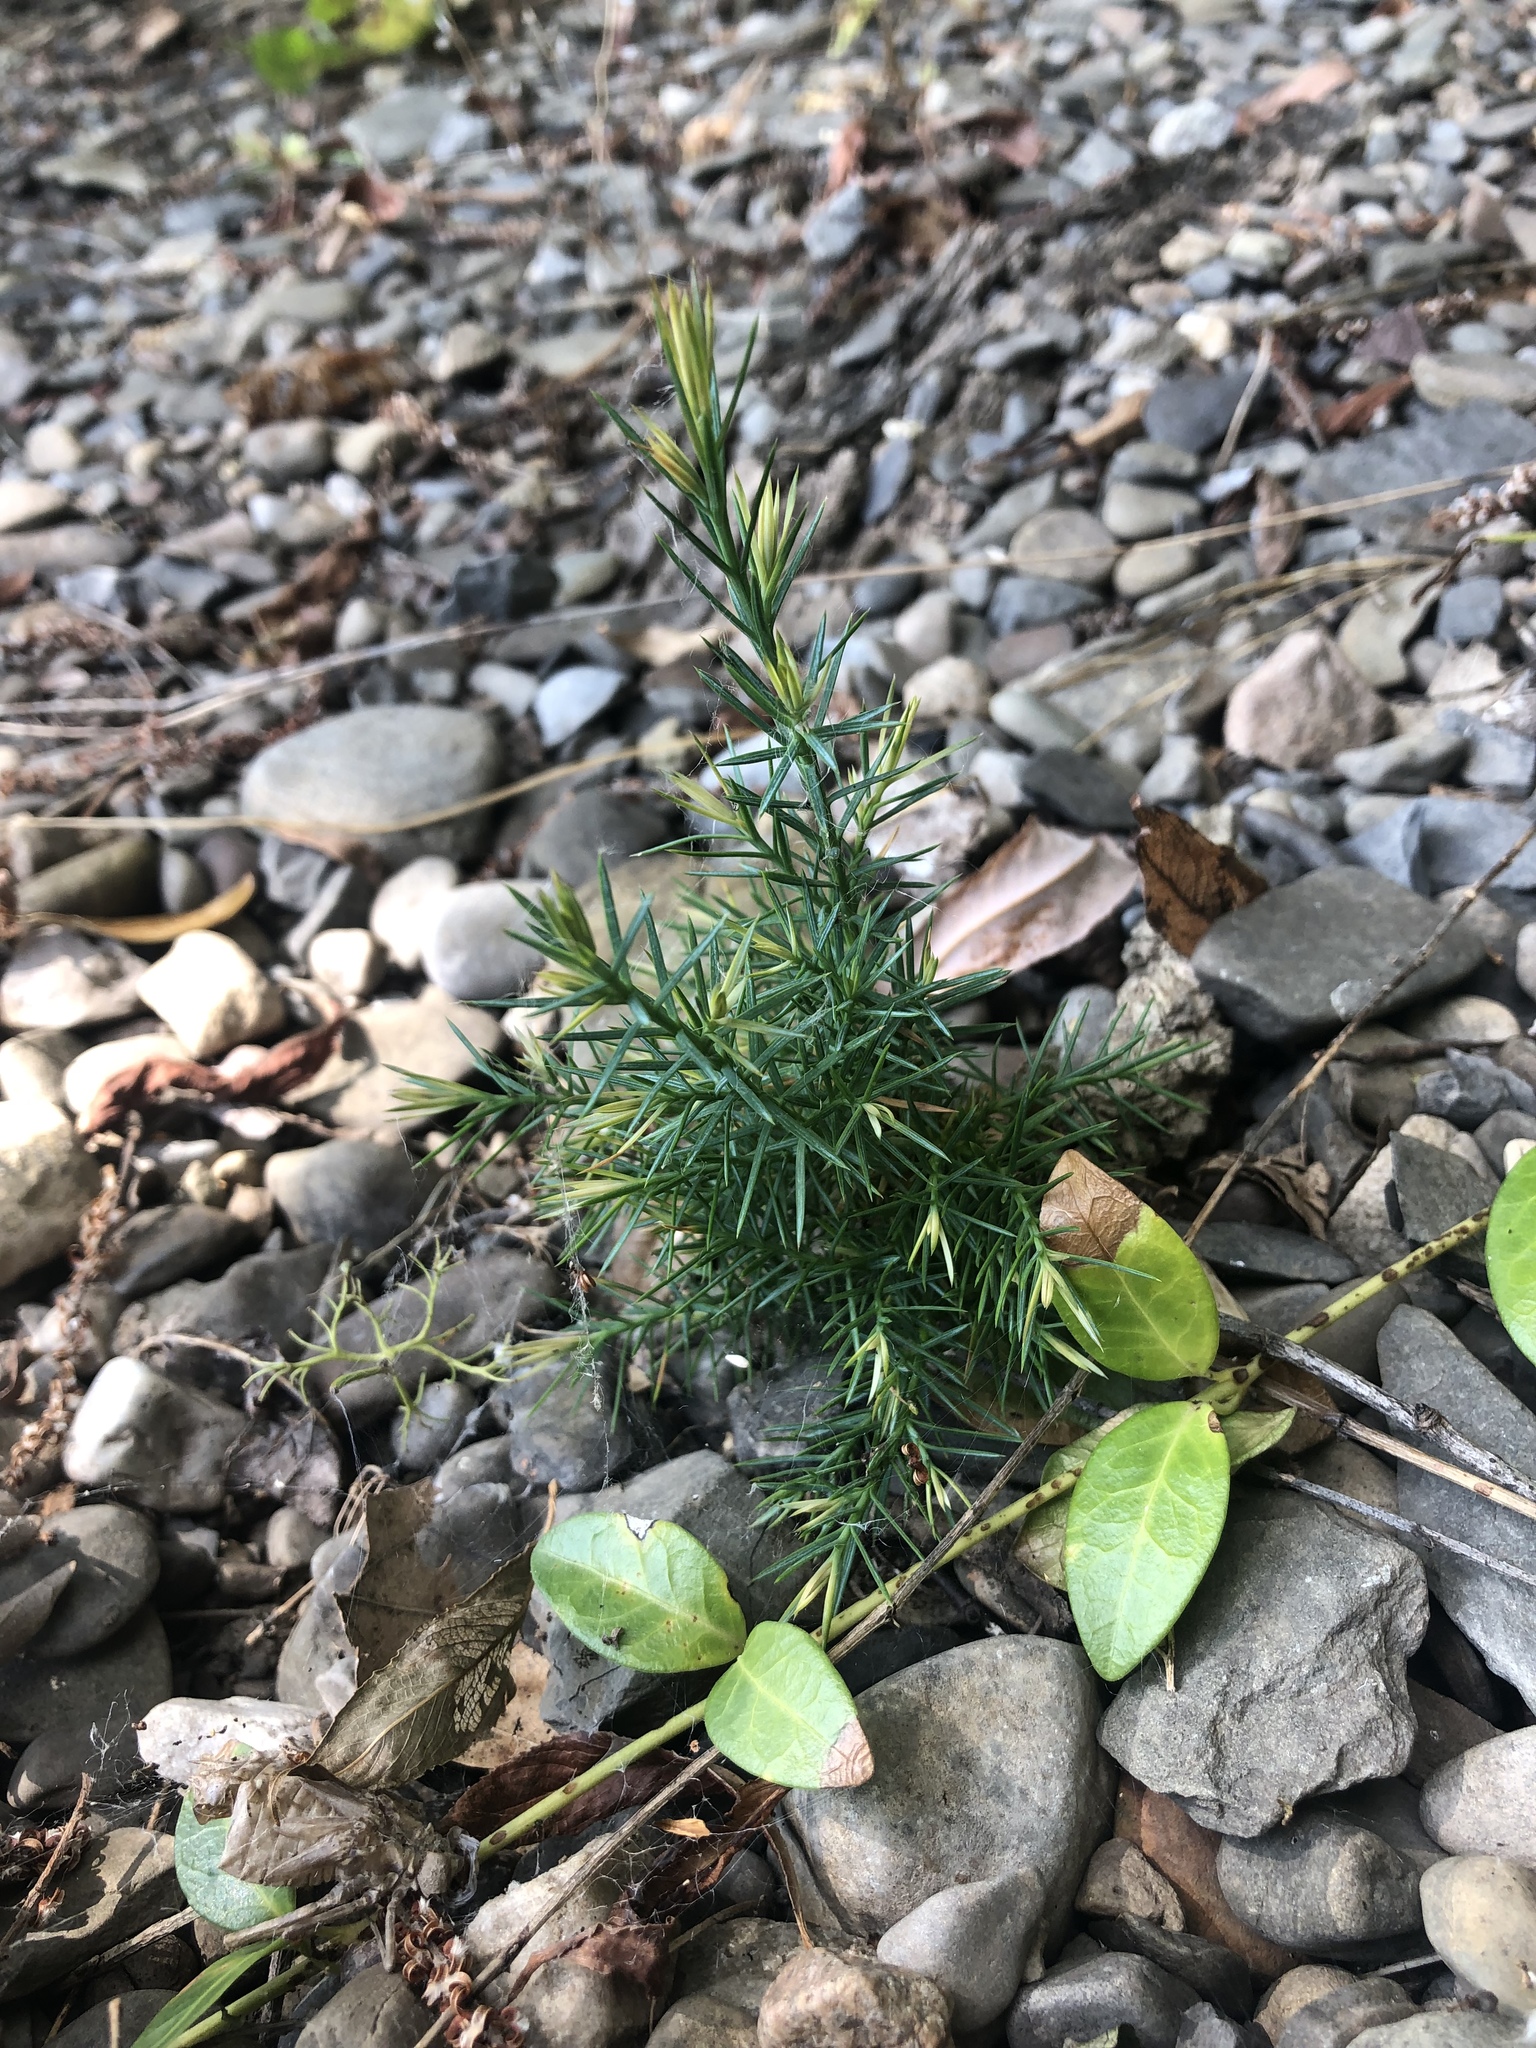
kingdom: Plantae
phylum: Tracheophyta
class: Pinopsida
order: Pinales
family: Cupressaceae
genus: Juniperus
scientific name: Juniperus communis
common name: Common juniper
